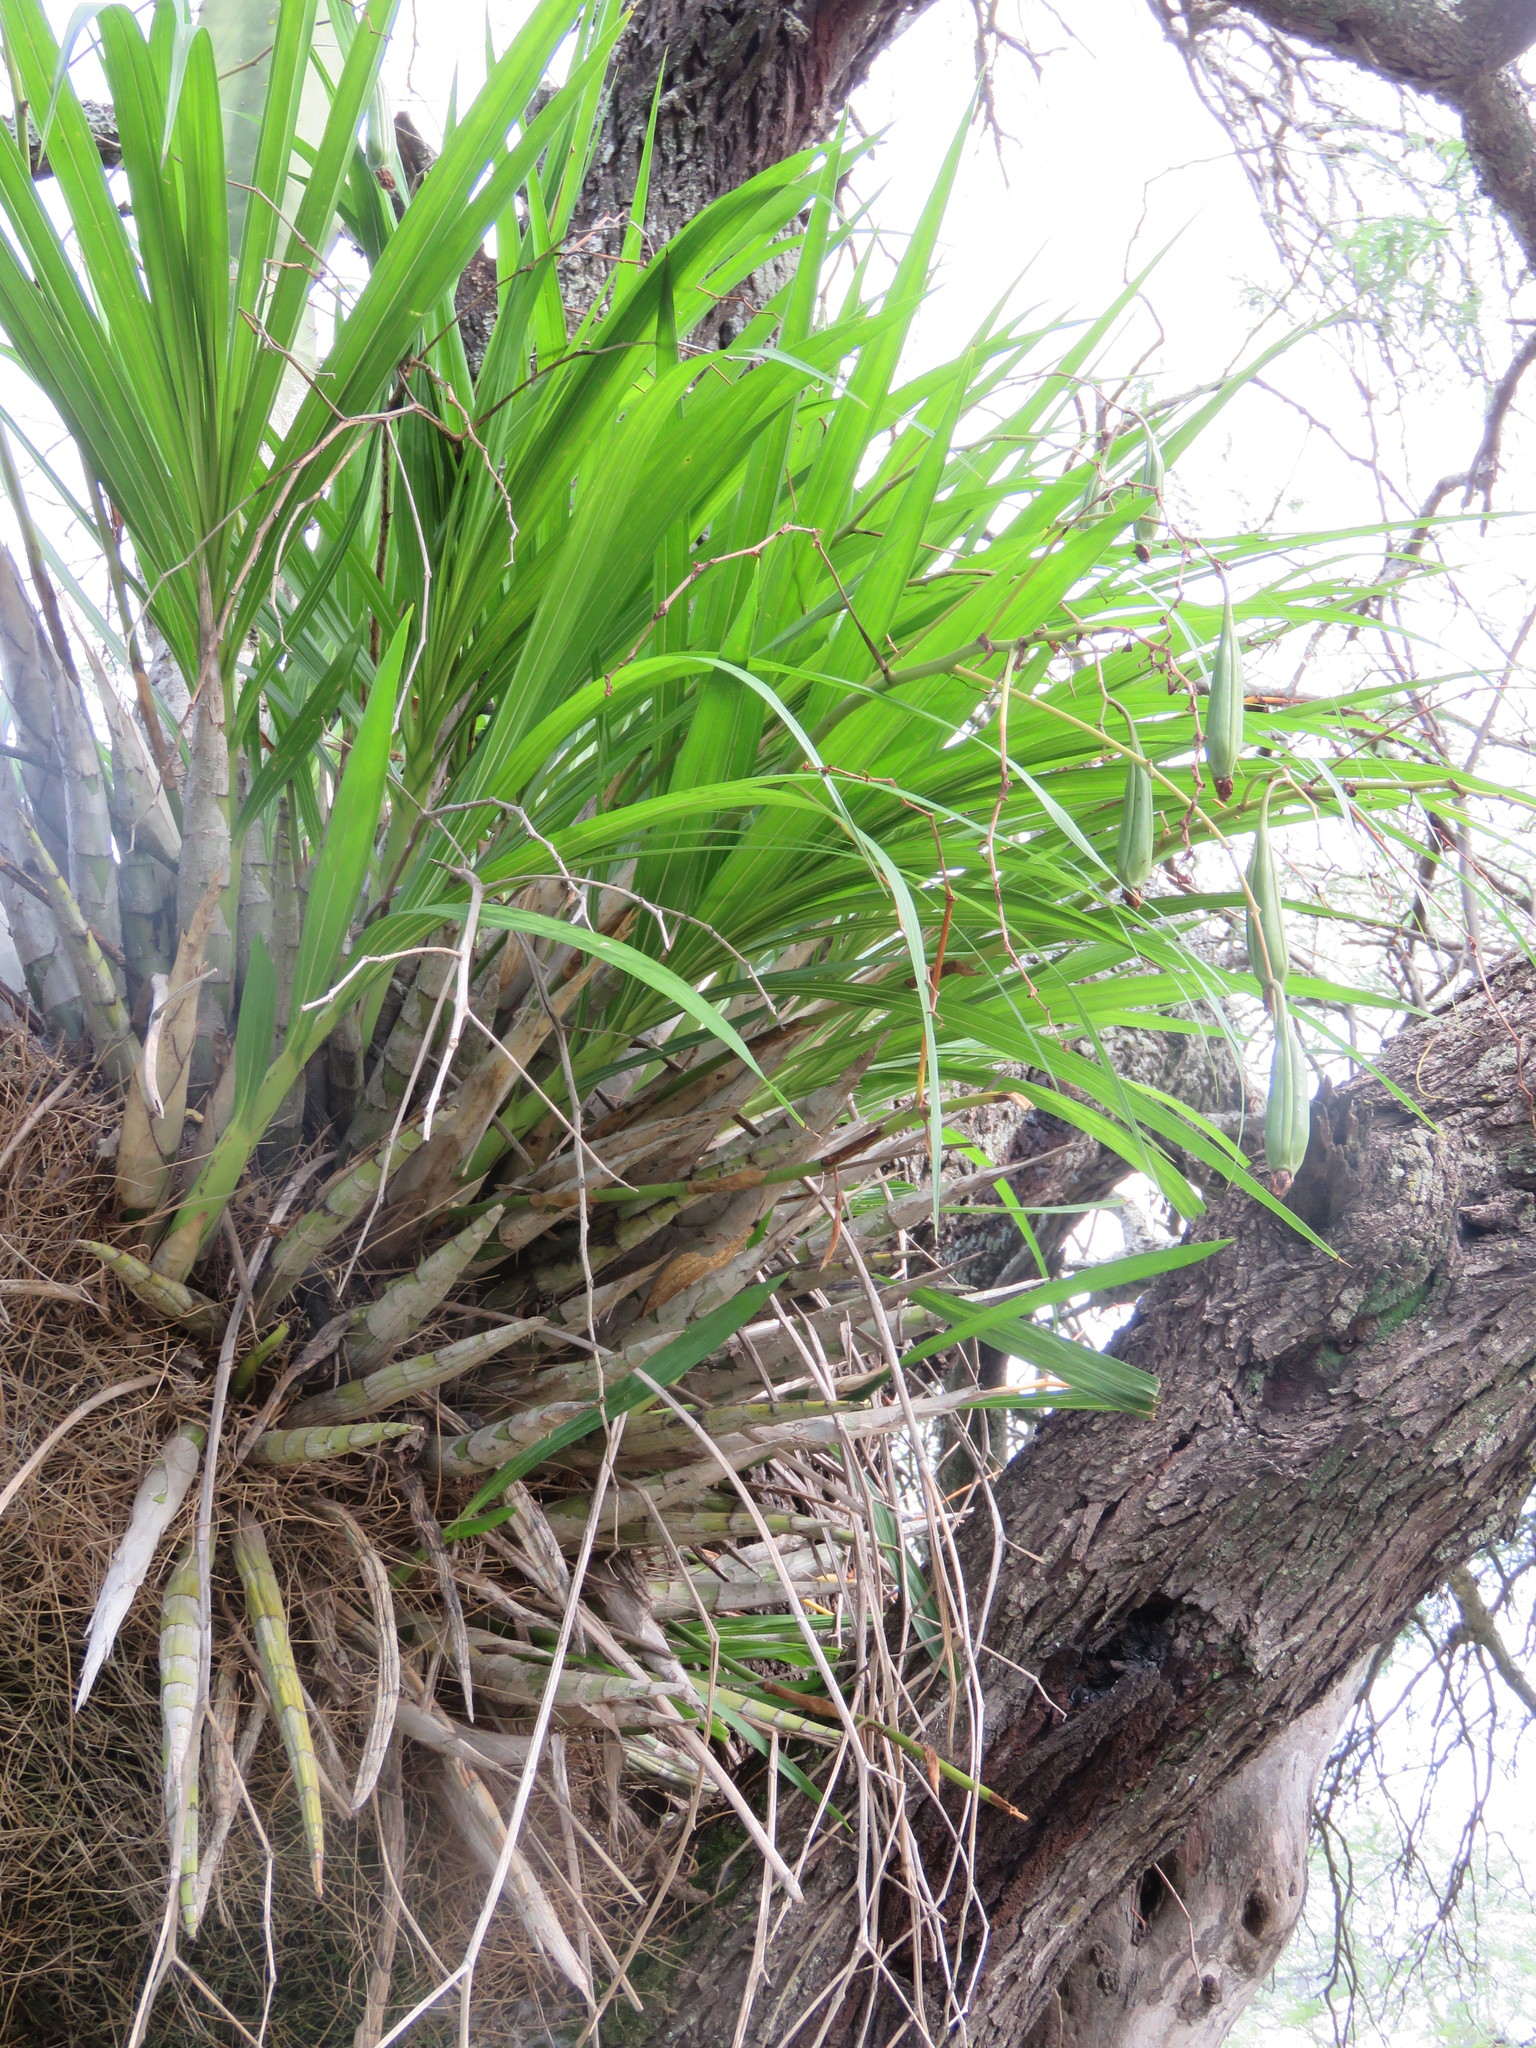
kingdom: Plantae
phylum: Tracheophyta
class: Liliopsida
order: Asparagales
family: Orchidaceae
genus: Cyrtopodium
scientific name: Cyrtopodium paniculatum
